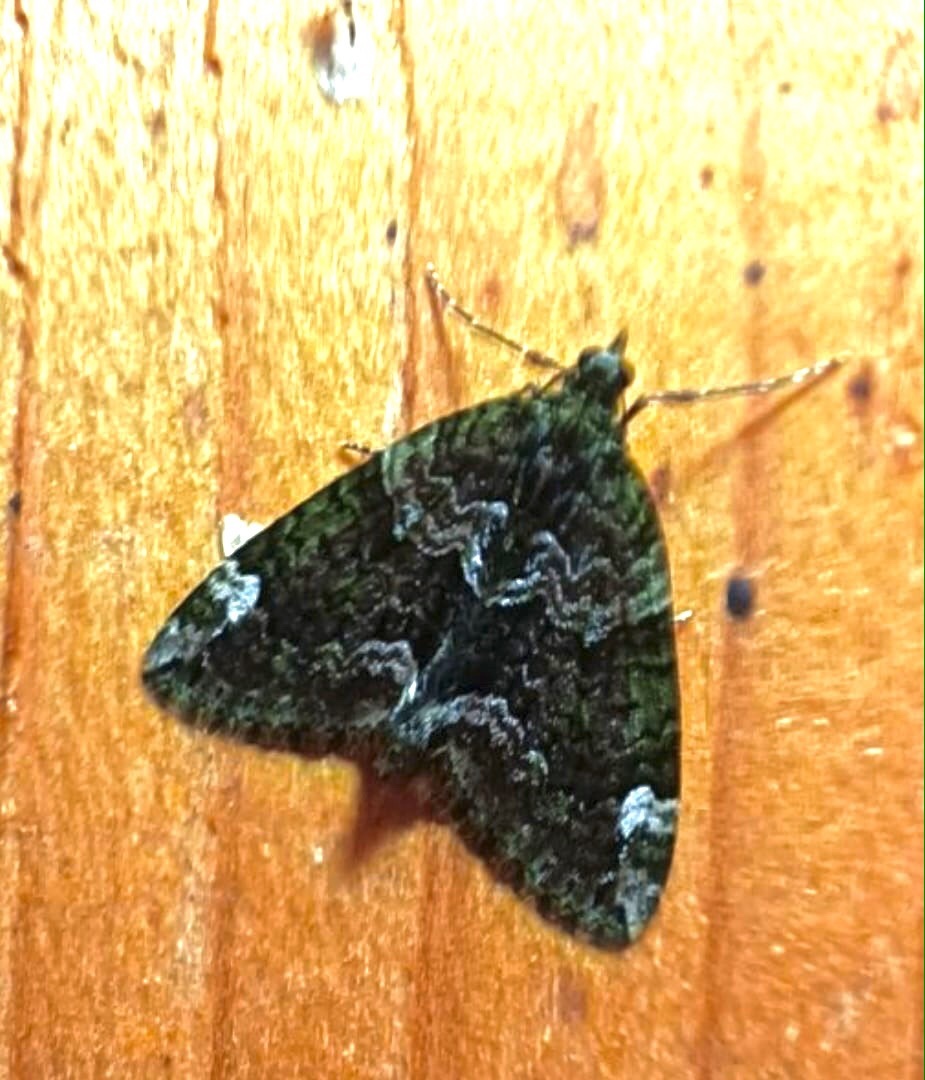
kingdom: Animalia
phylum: Arthropoda
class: Insecta
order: Lepidoptera
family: Geometridae
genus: Chloroclysta
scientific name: Chloroclysta siterata
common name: Red-green carpet
